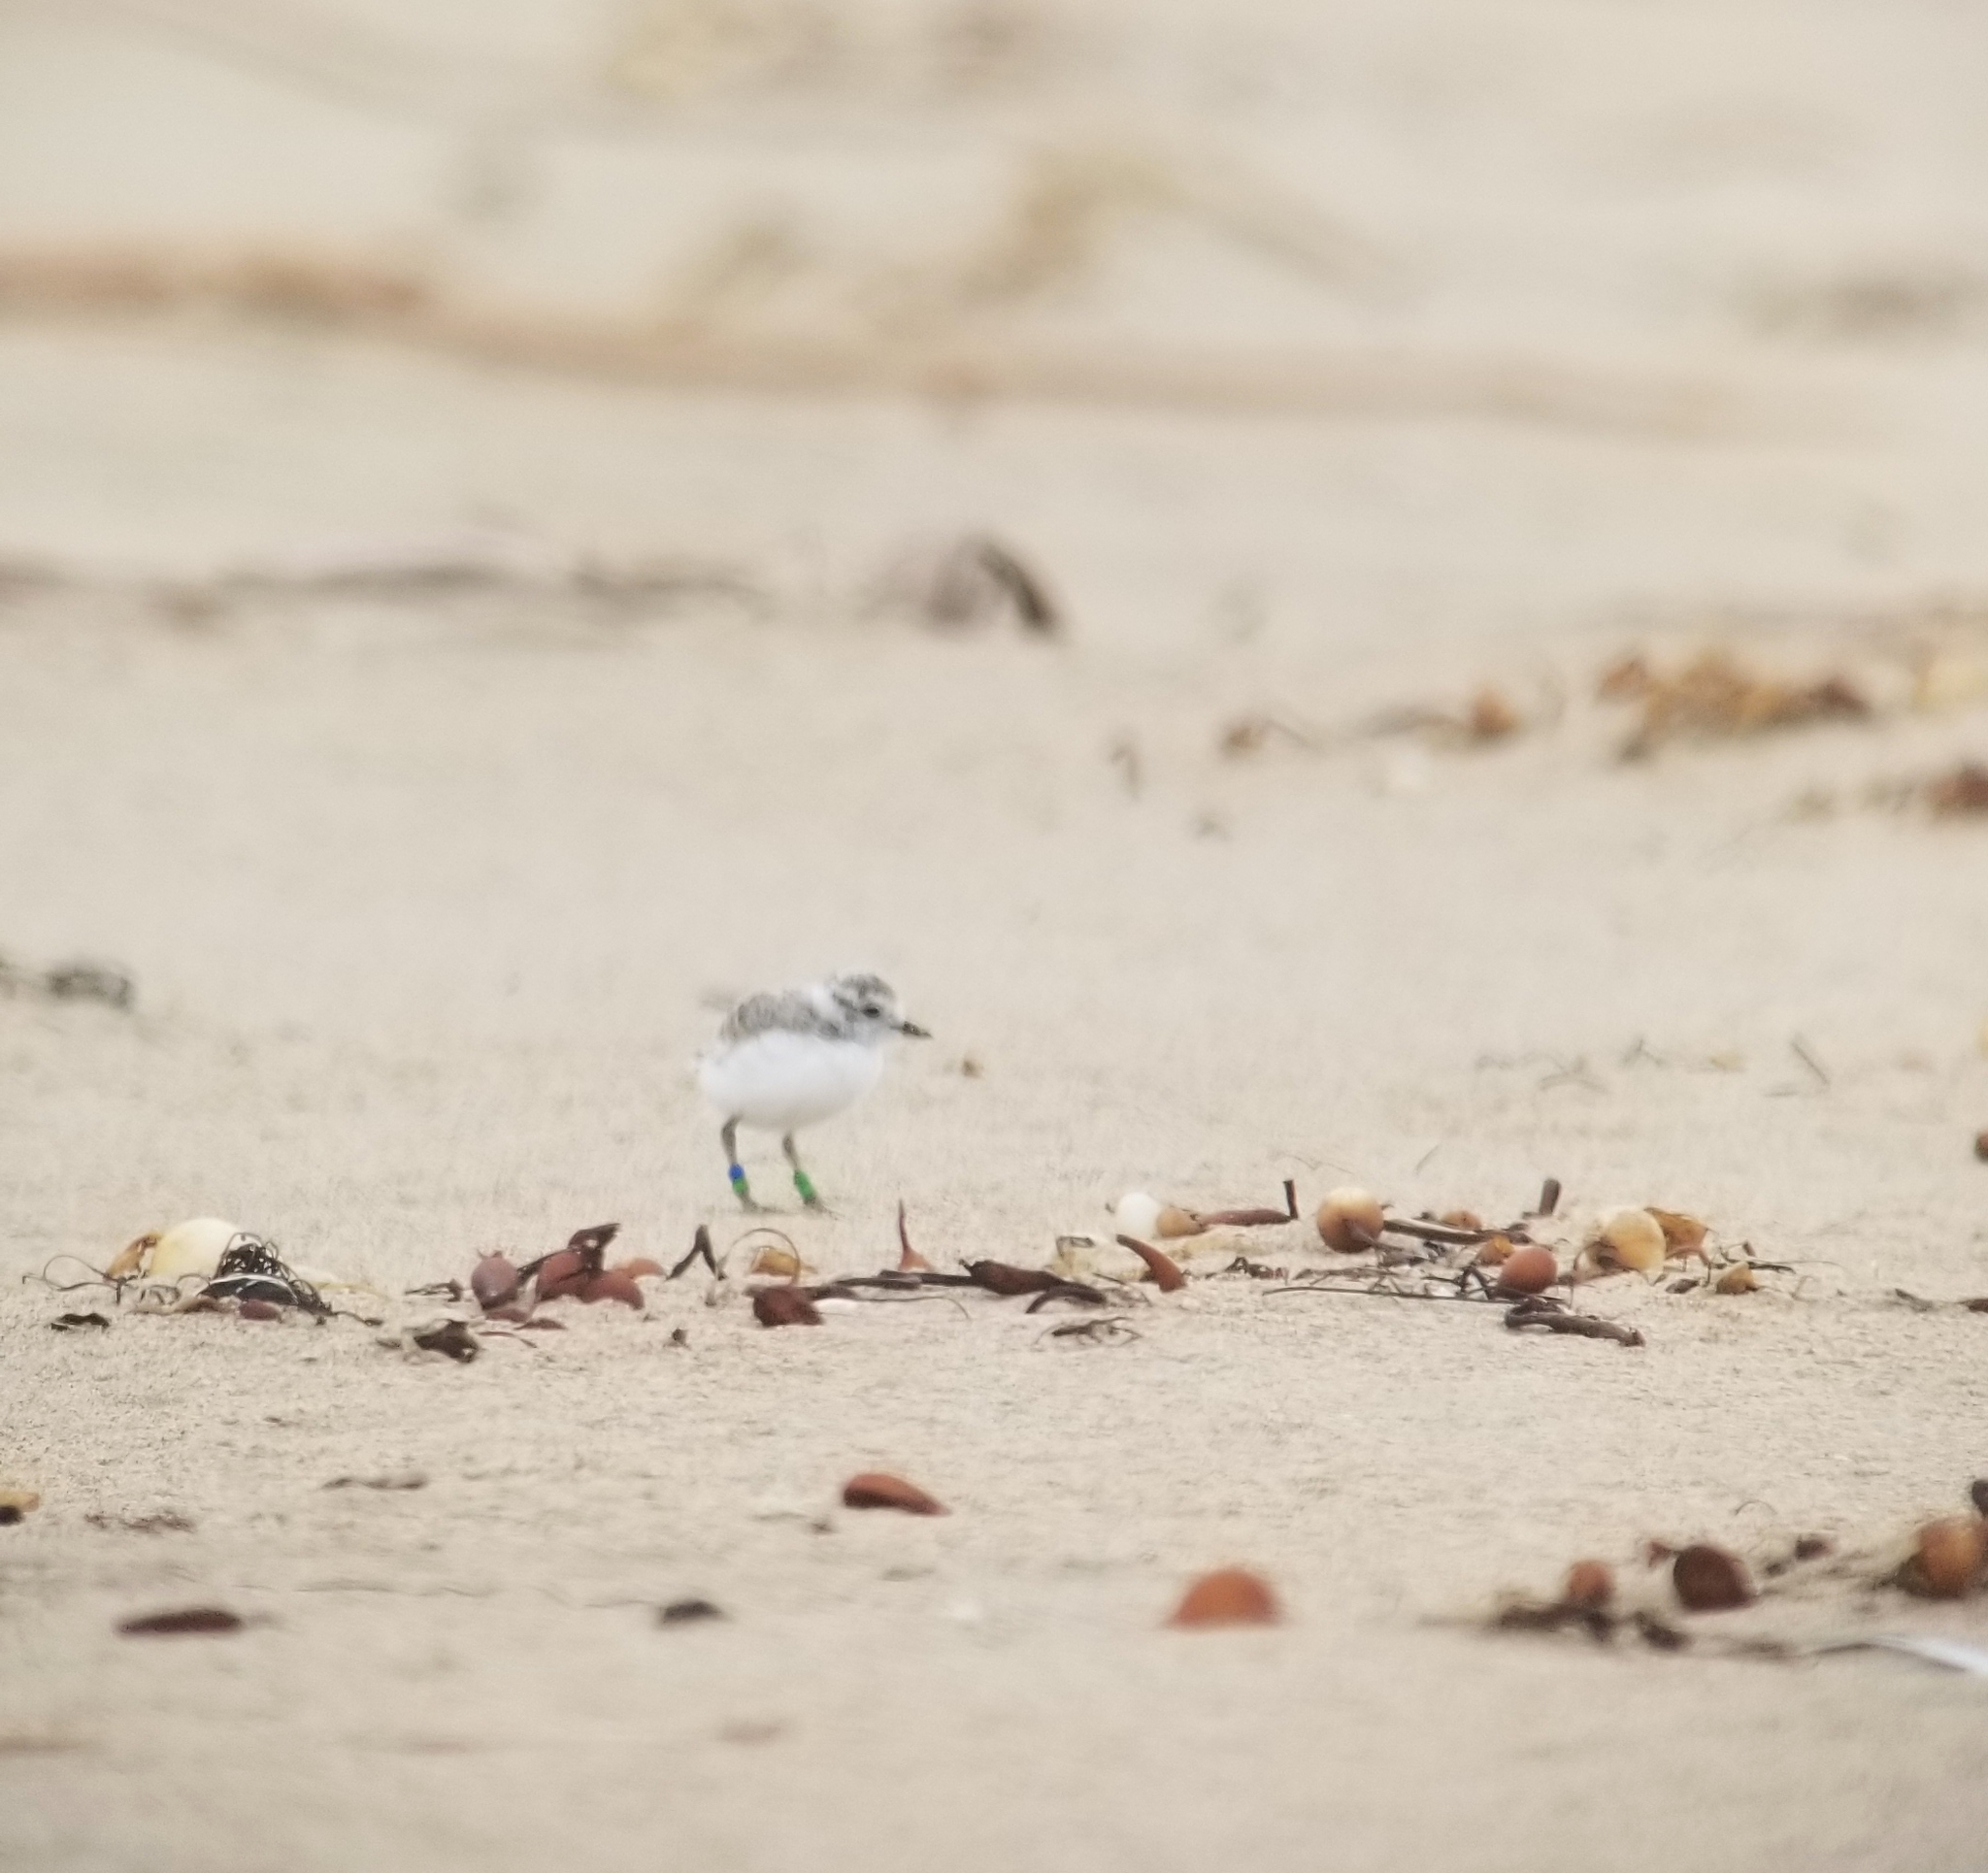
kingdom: Animalia
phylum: Chordata
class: Aves
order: Charadriiformes
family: Charadriidae
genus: Anarhynchus
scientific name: Anarhynchus
